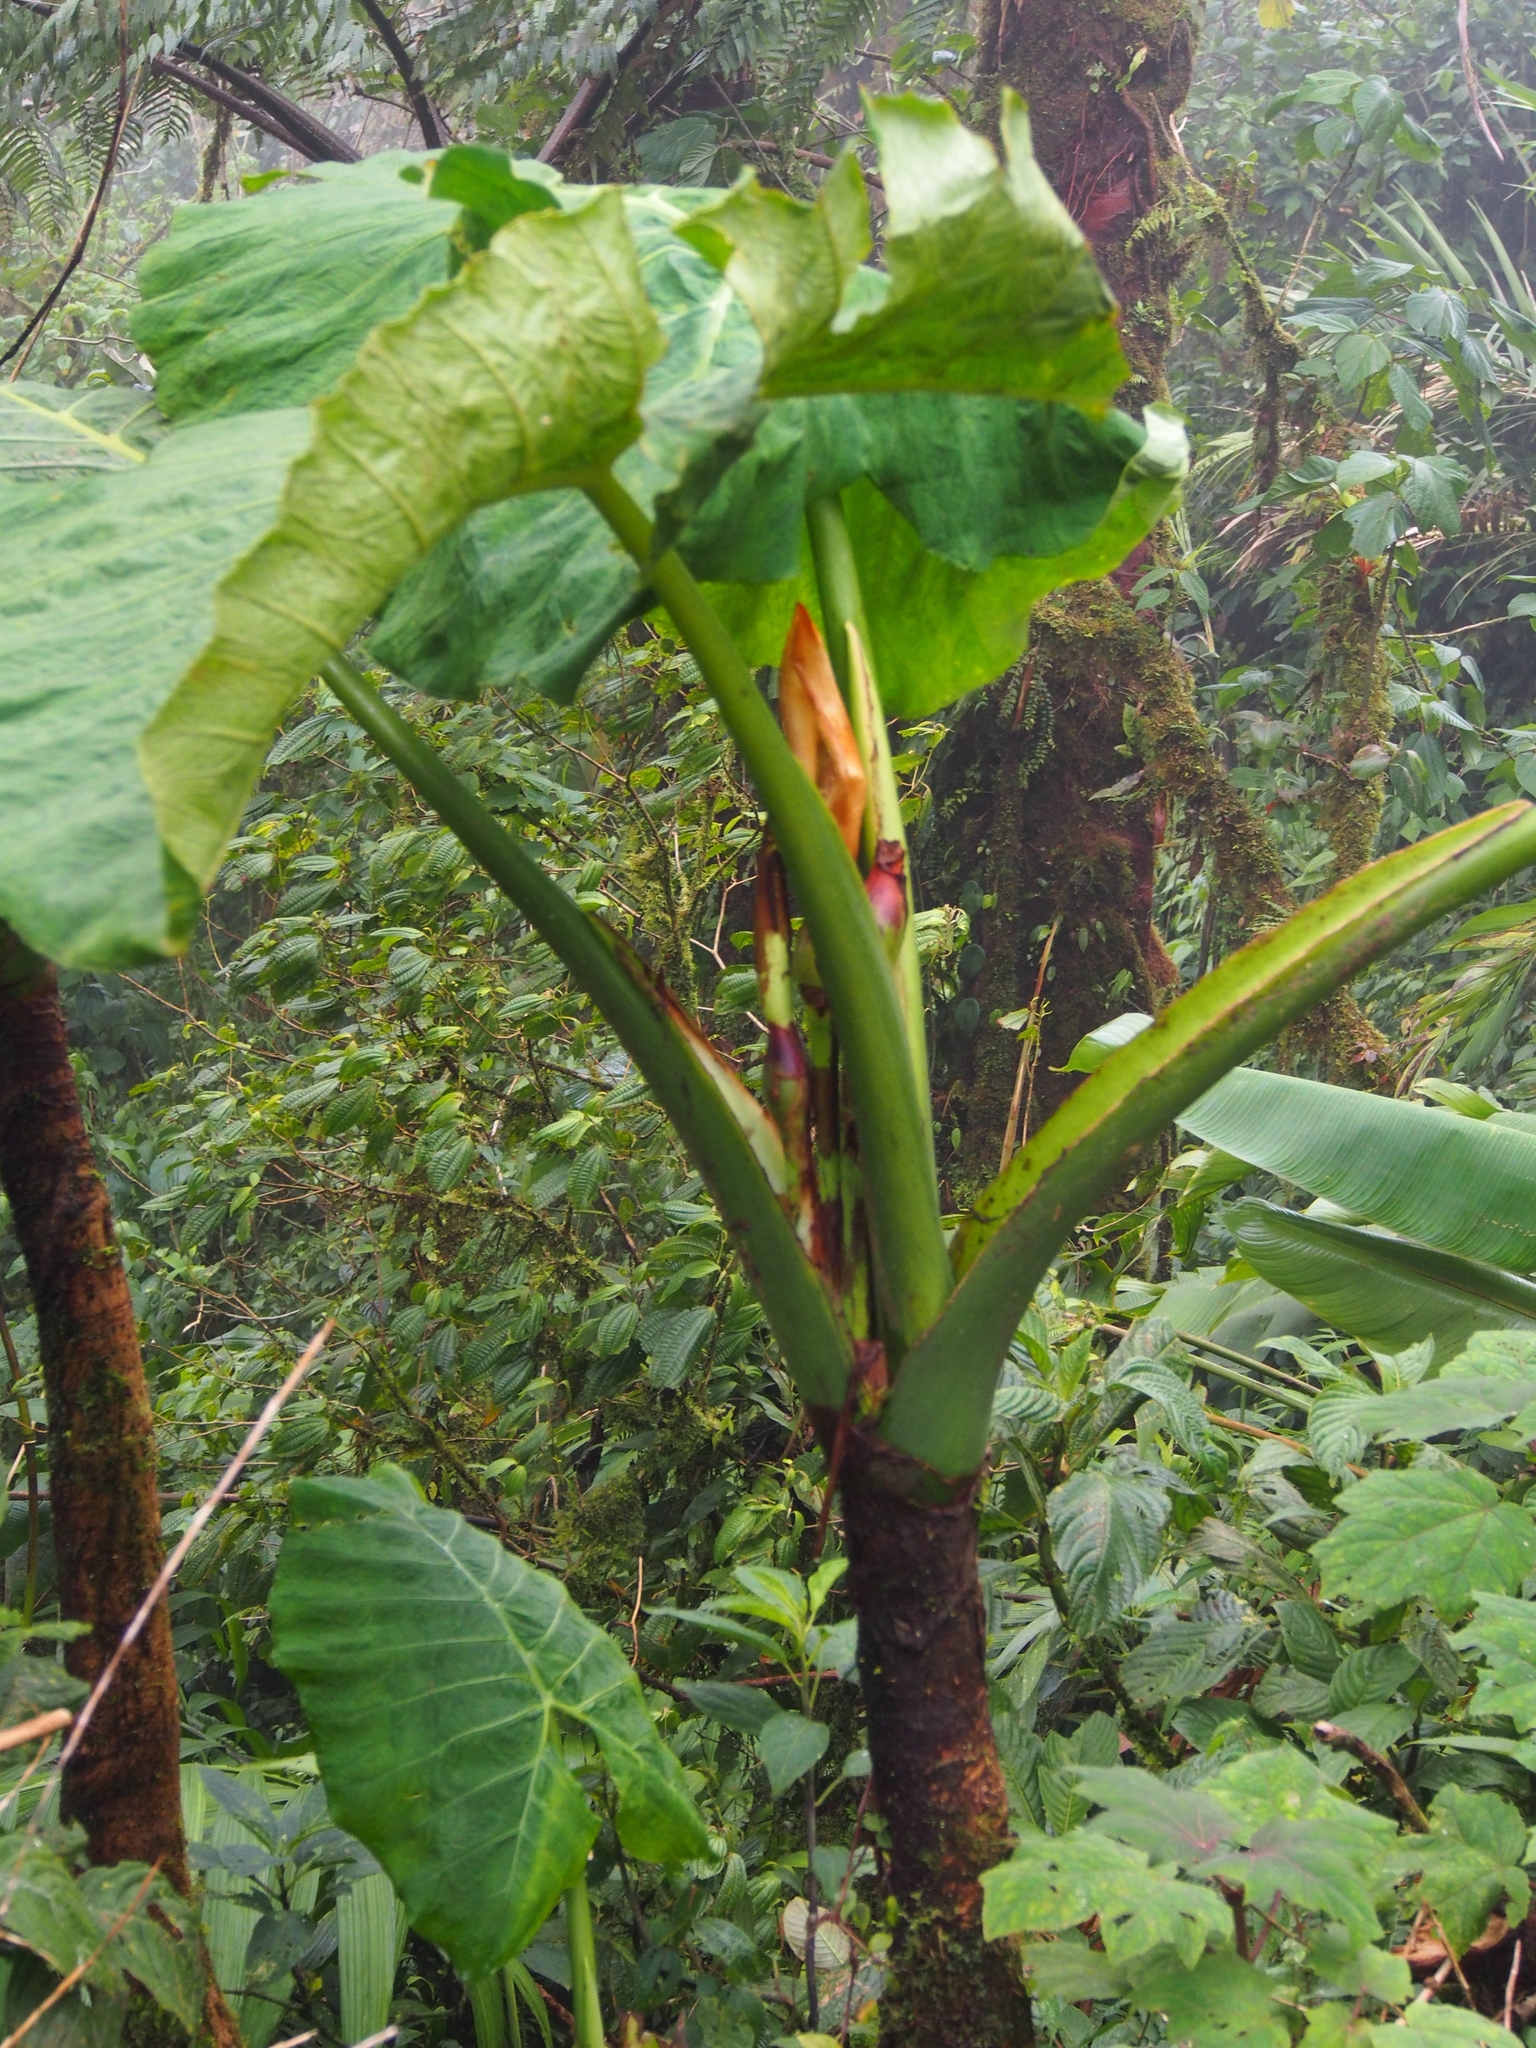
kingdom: Plantae
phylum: Tracheophyta
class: Liliopsida
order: Alismatales
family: Araceae
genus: Xanthosoma
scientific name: Xanthosoma undipes
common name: Tall elephant's ear
